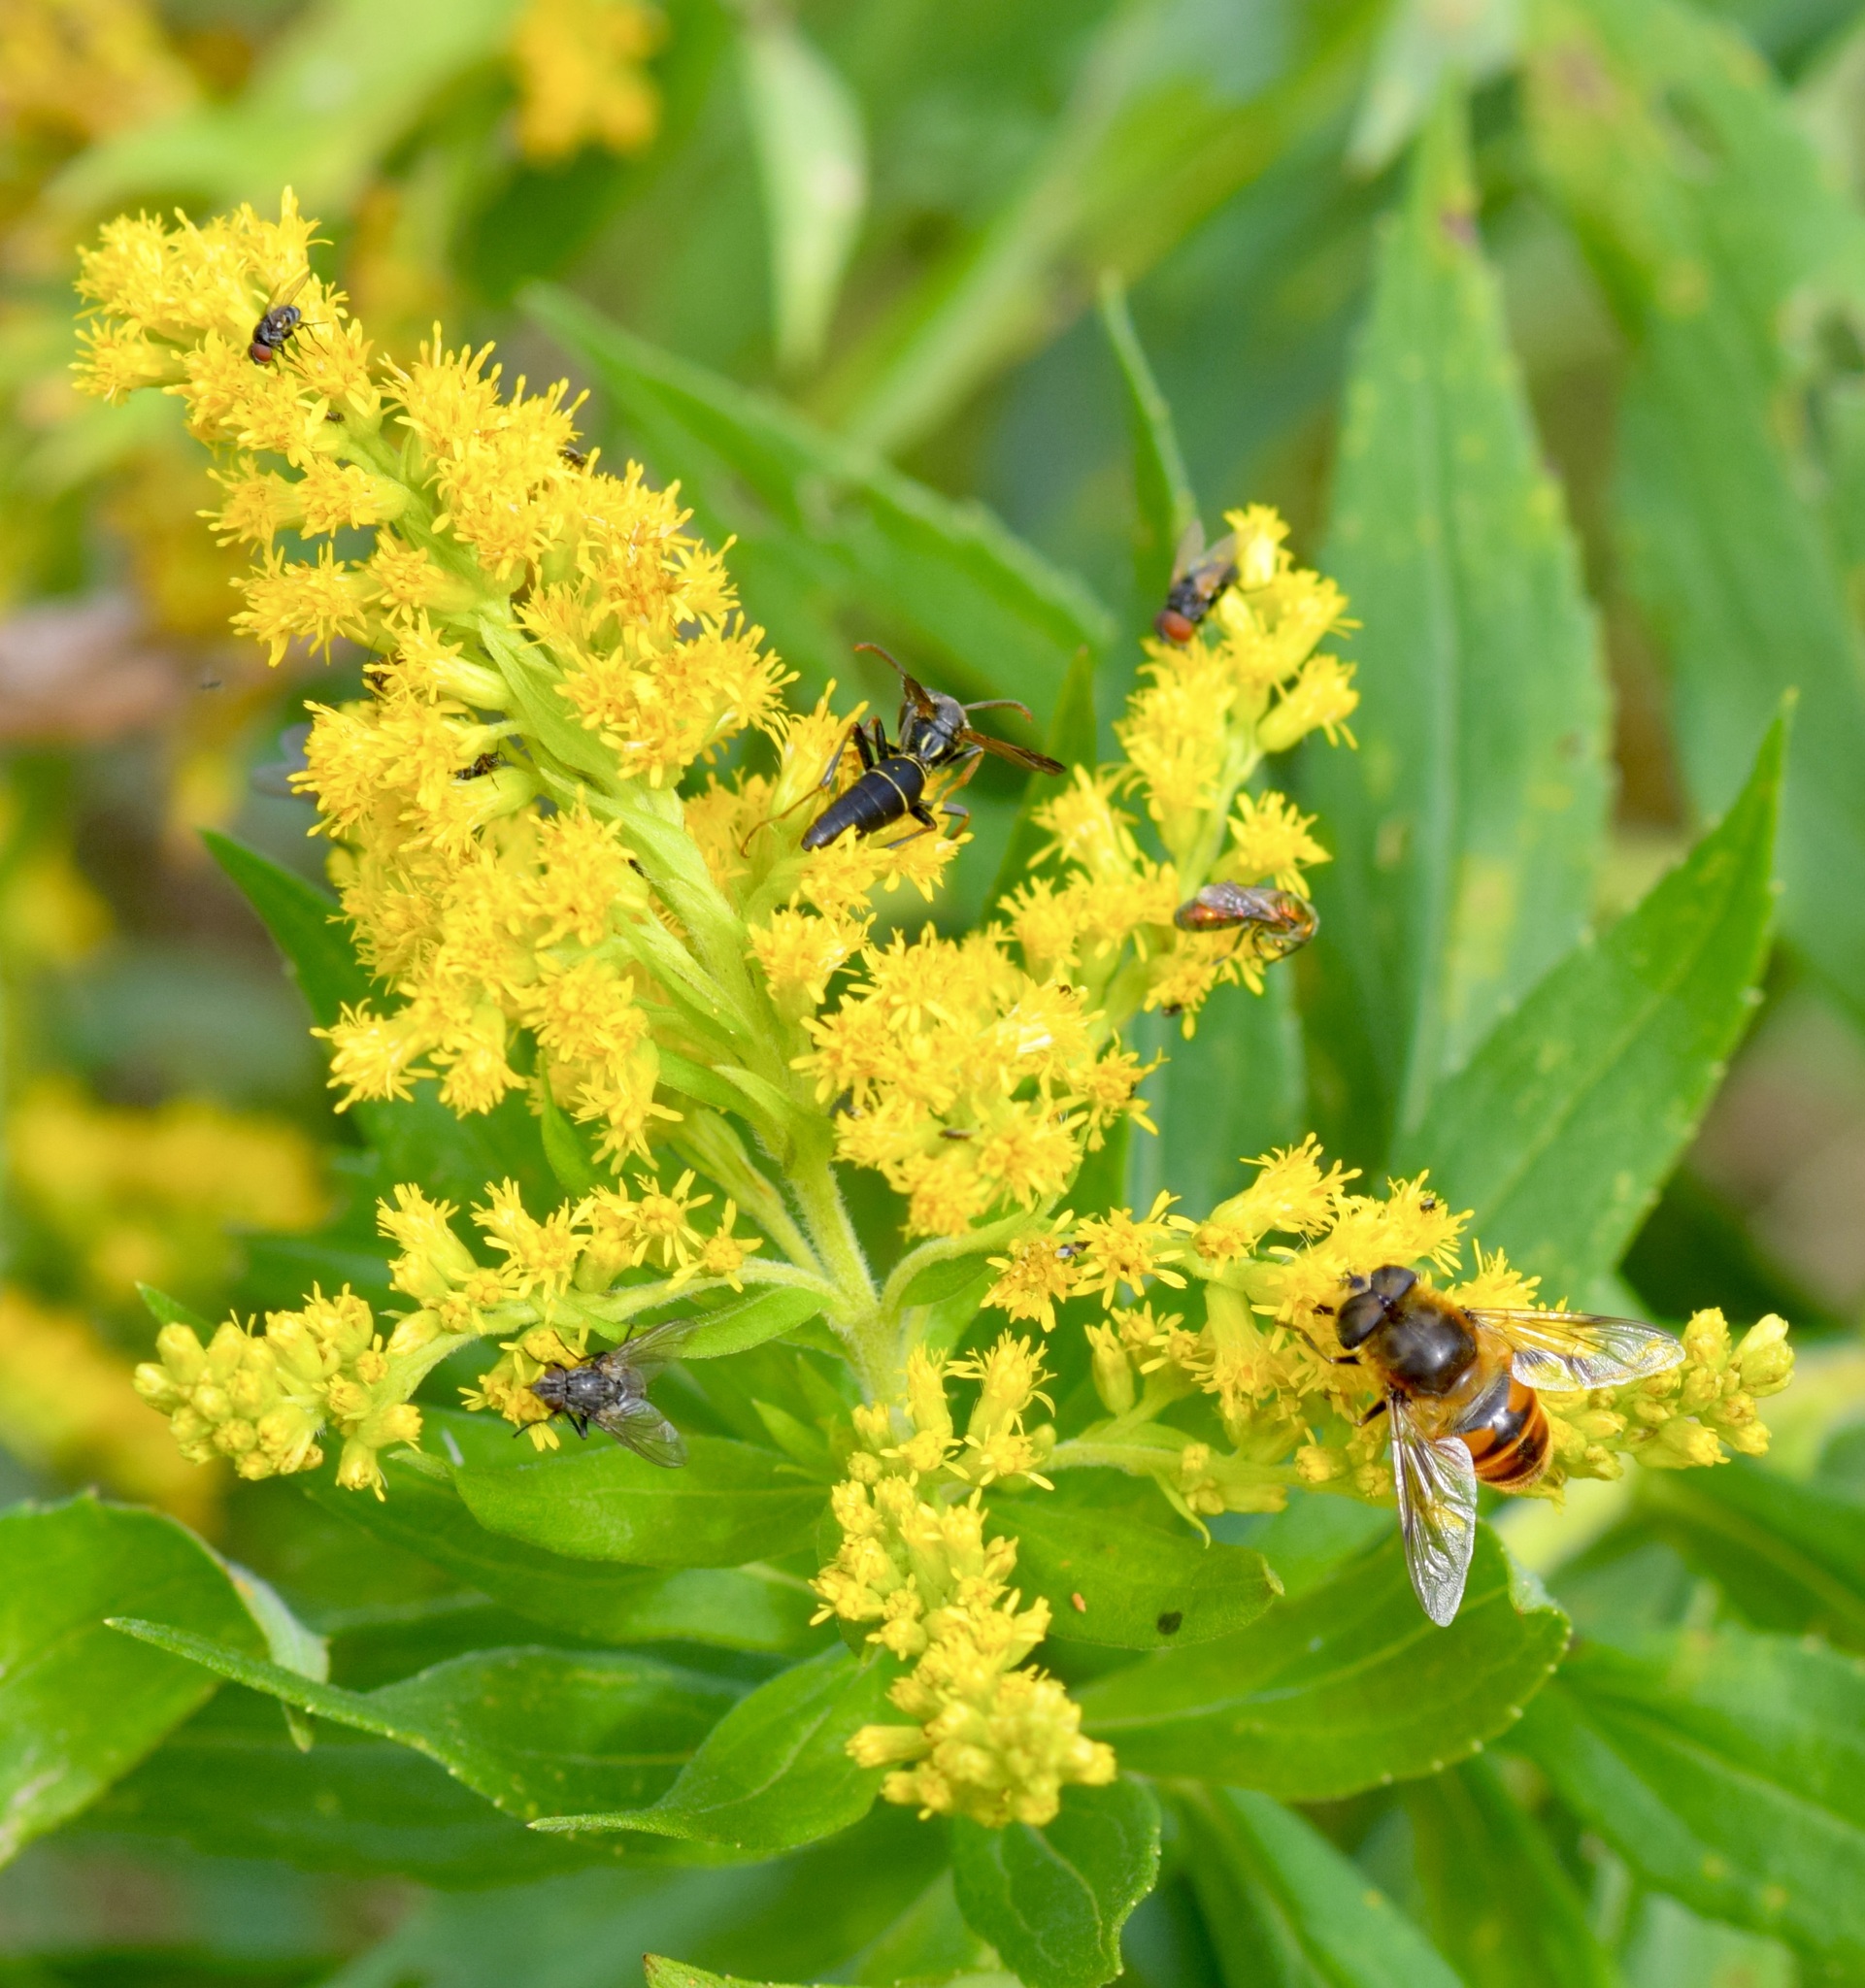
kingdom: Animalia
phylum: Arthropoda
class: Insecta
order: Diptera
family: Syrphidae
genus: Eristalis
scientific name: Eristalis tenax
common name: Drone fly
